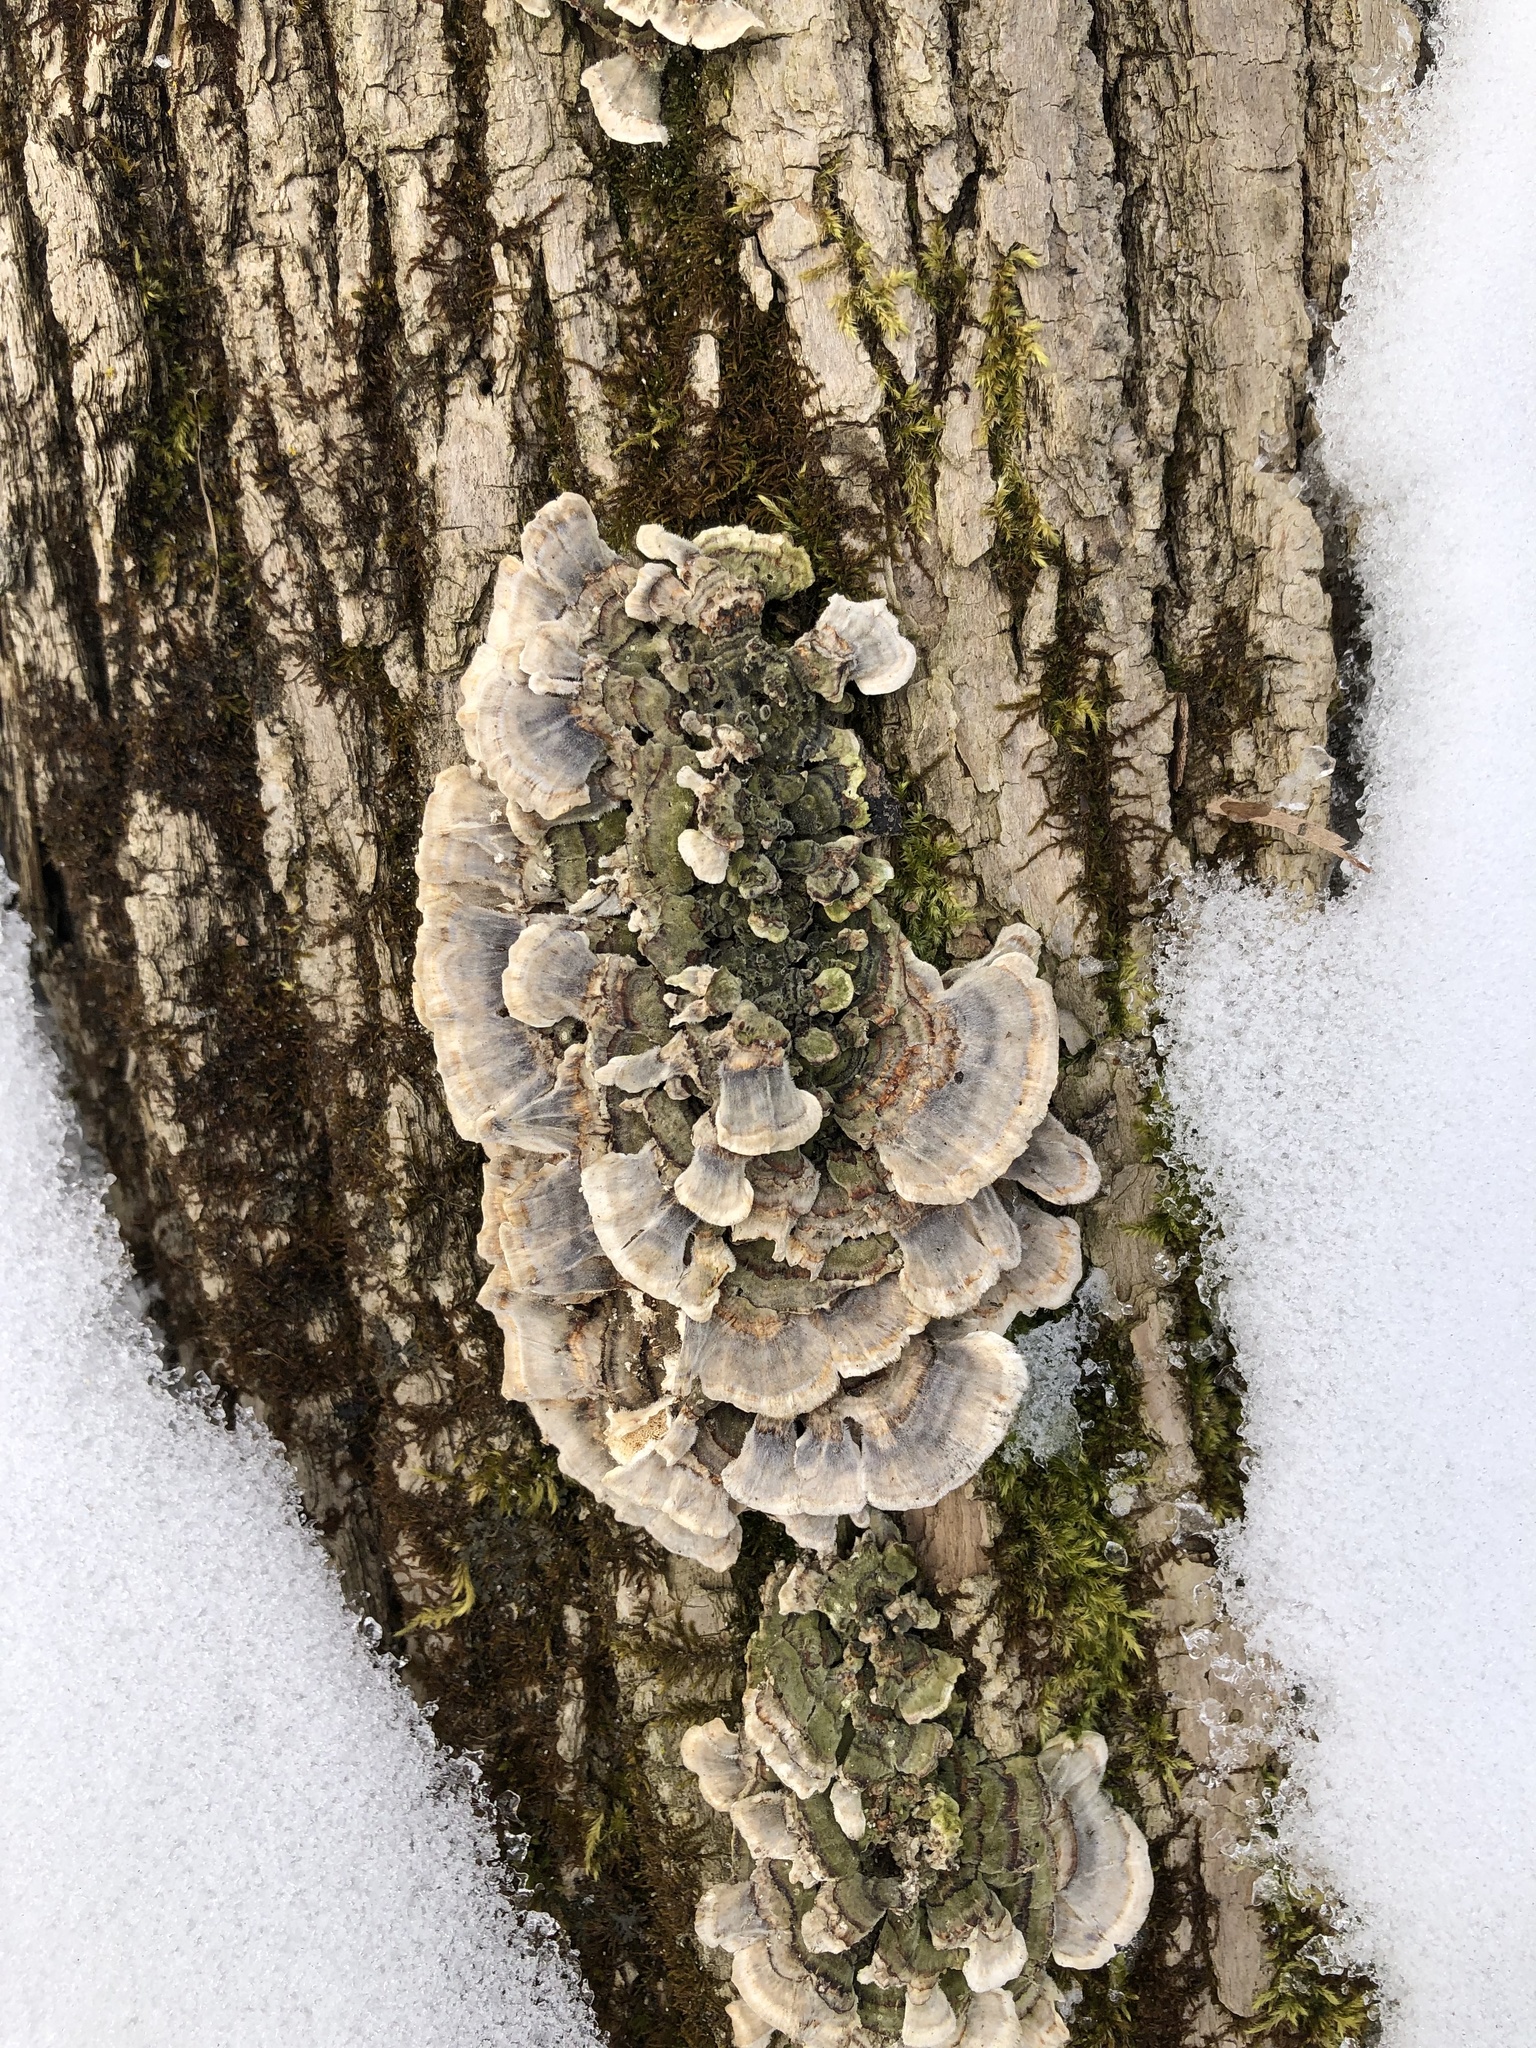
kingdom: Fungi
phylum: Basidiomycota
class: Agaricomycetes
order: Polyporales
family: Polyporaceae
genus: Trametes
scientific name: Trametes versicolor
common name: Turkeytail
